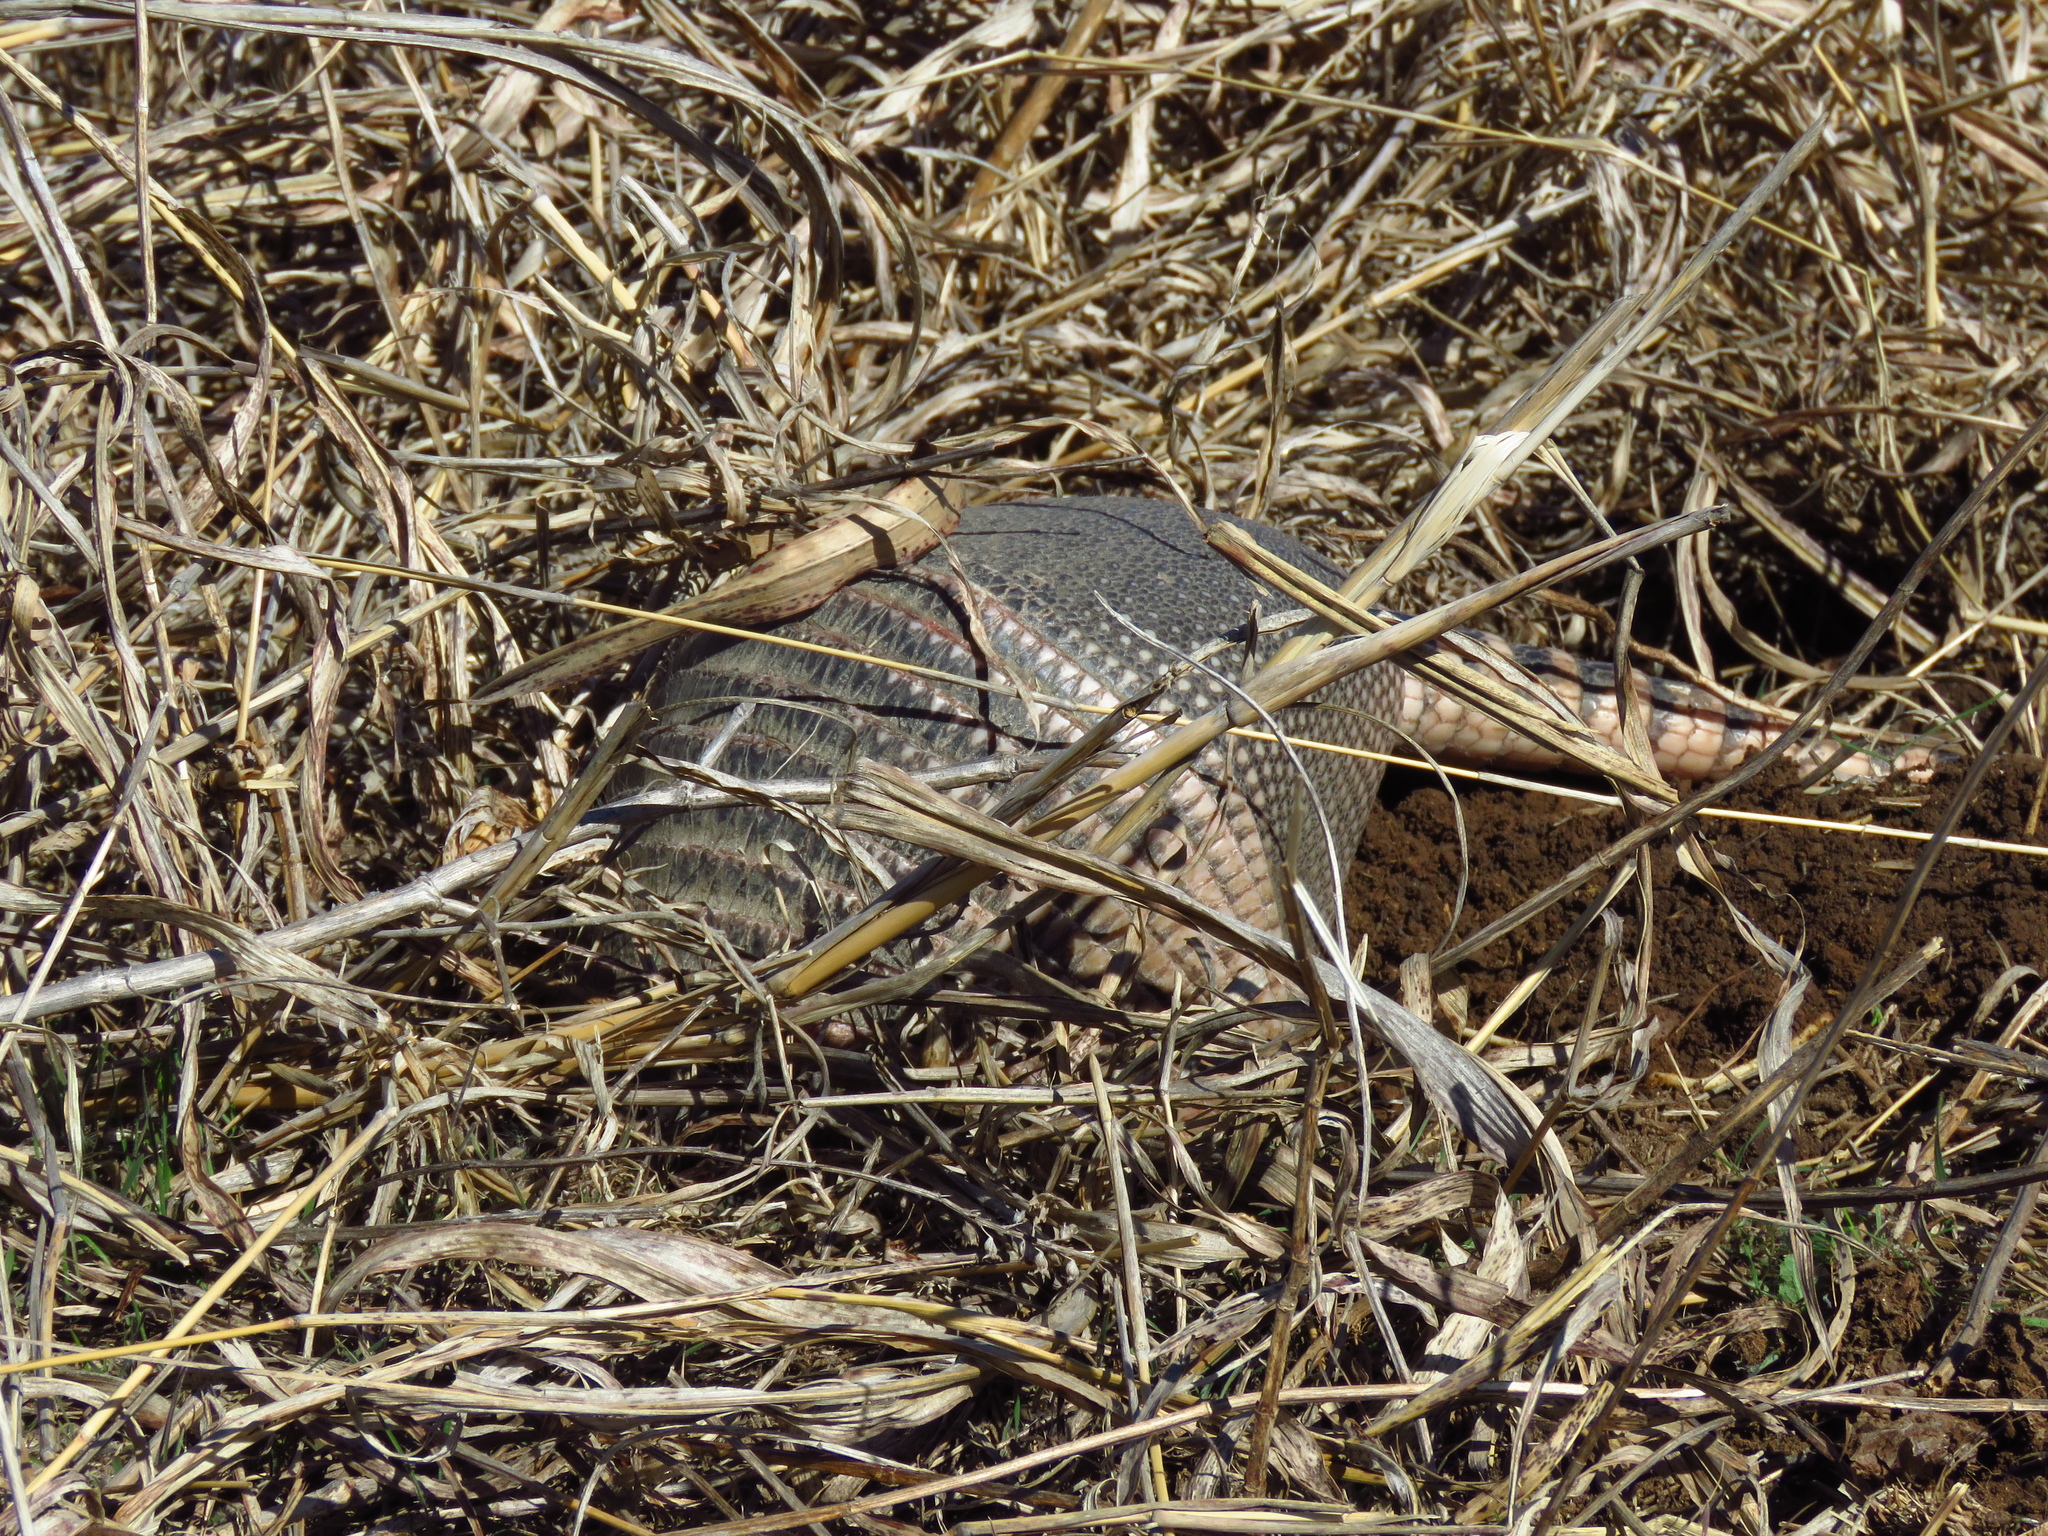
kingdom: Animalia
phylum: Chordata
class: Mammalia
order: Cingulata
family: Dasypodidae
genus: Dasypus
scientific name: Dasypus novemcinctus
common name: Nine-banded armadillo
